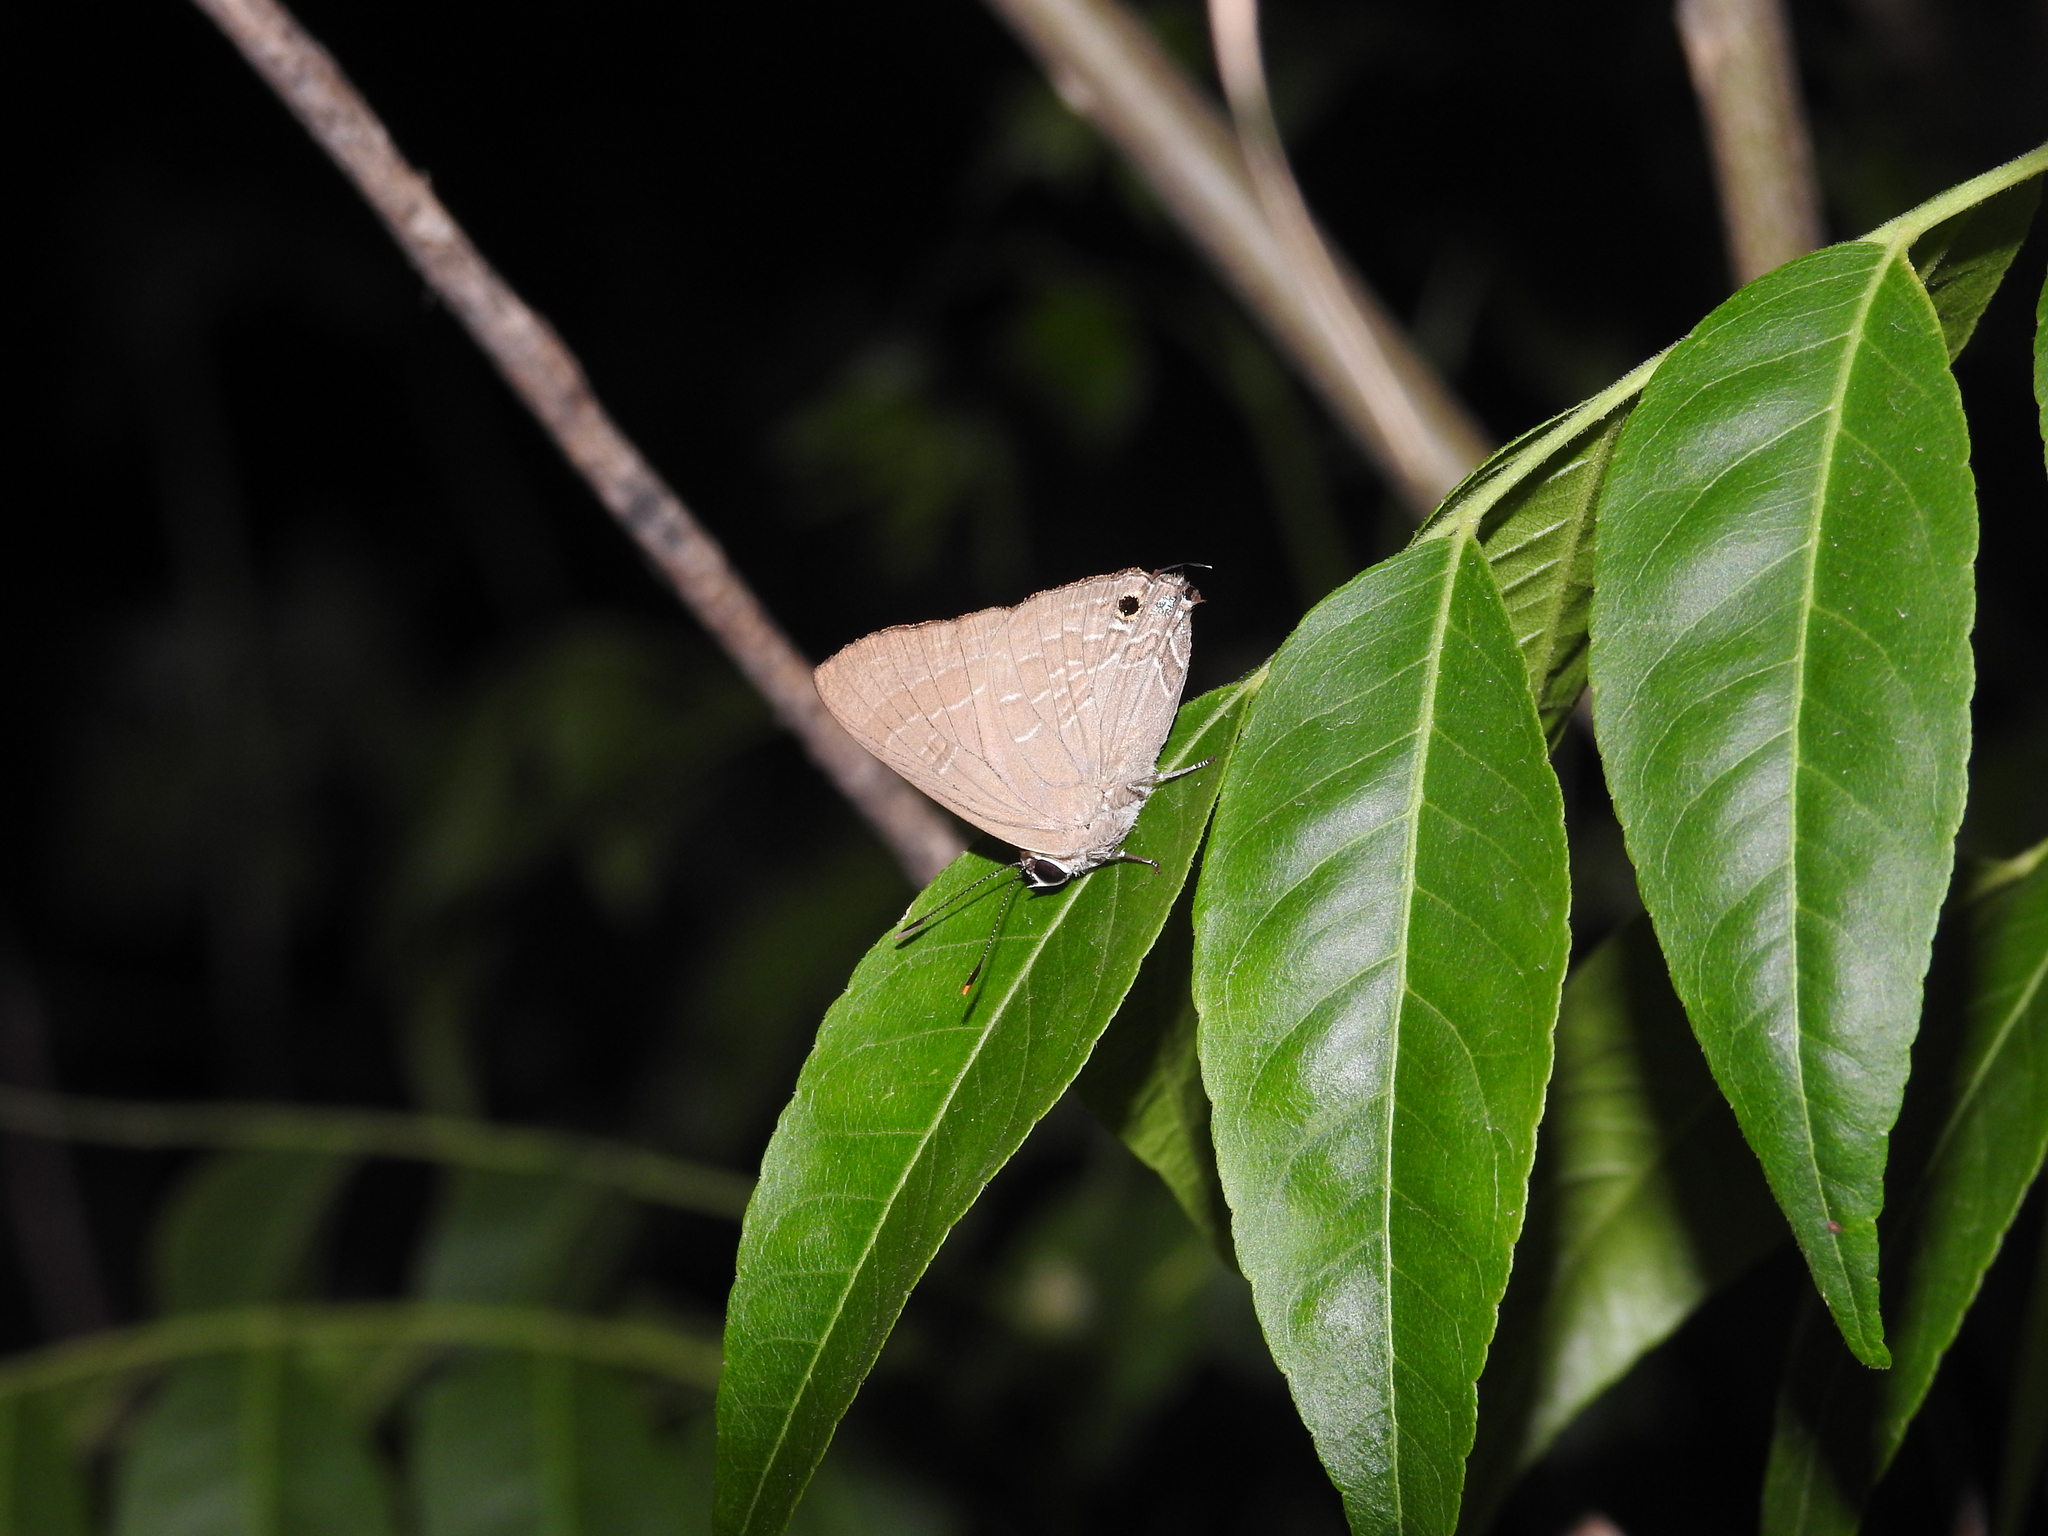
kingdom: Animalia
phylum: Arthropoda
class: Insecta
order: Lepidoptera
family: Lycaenidae
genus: Deudorix
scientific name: Deudorix epijarbas
